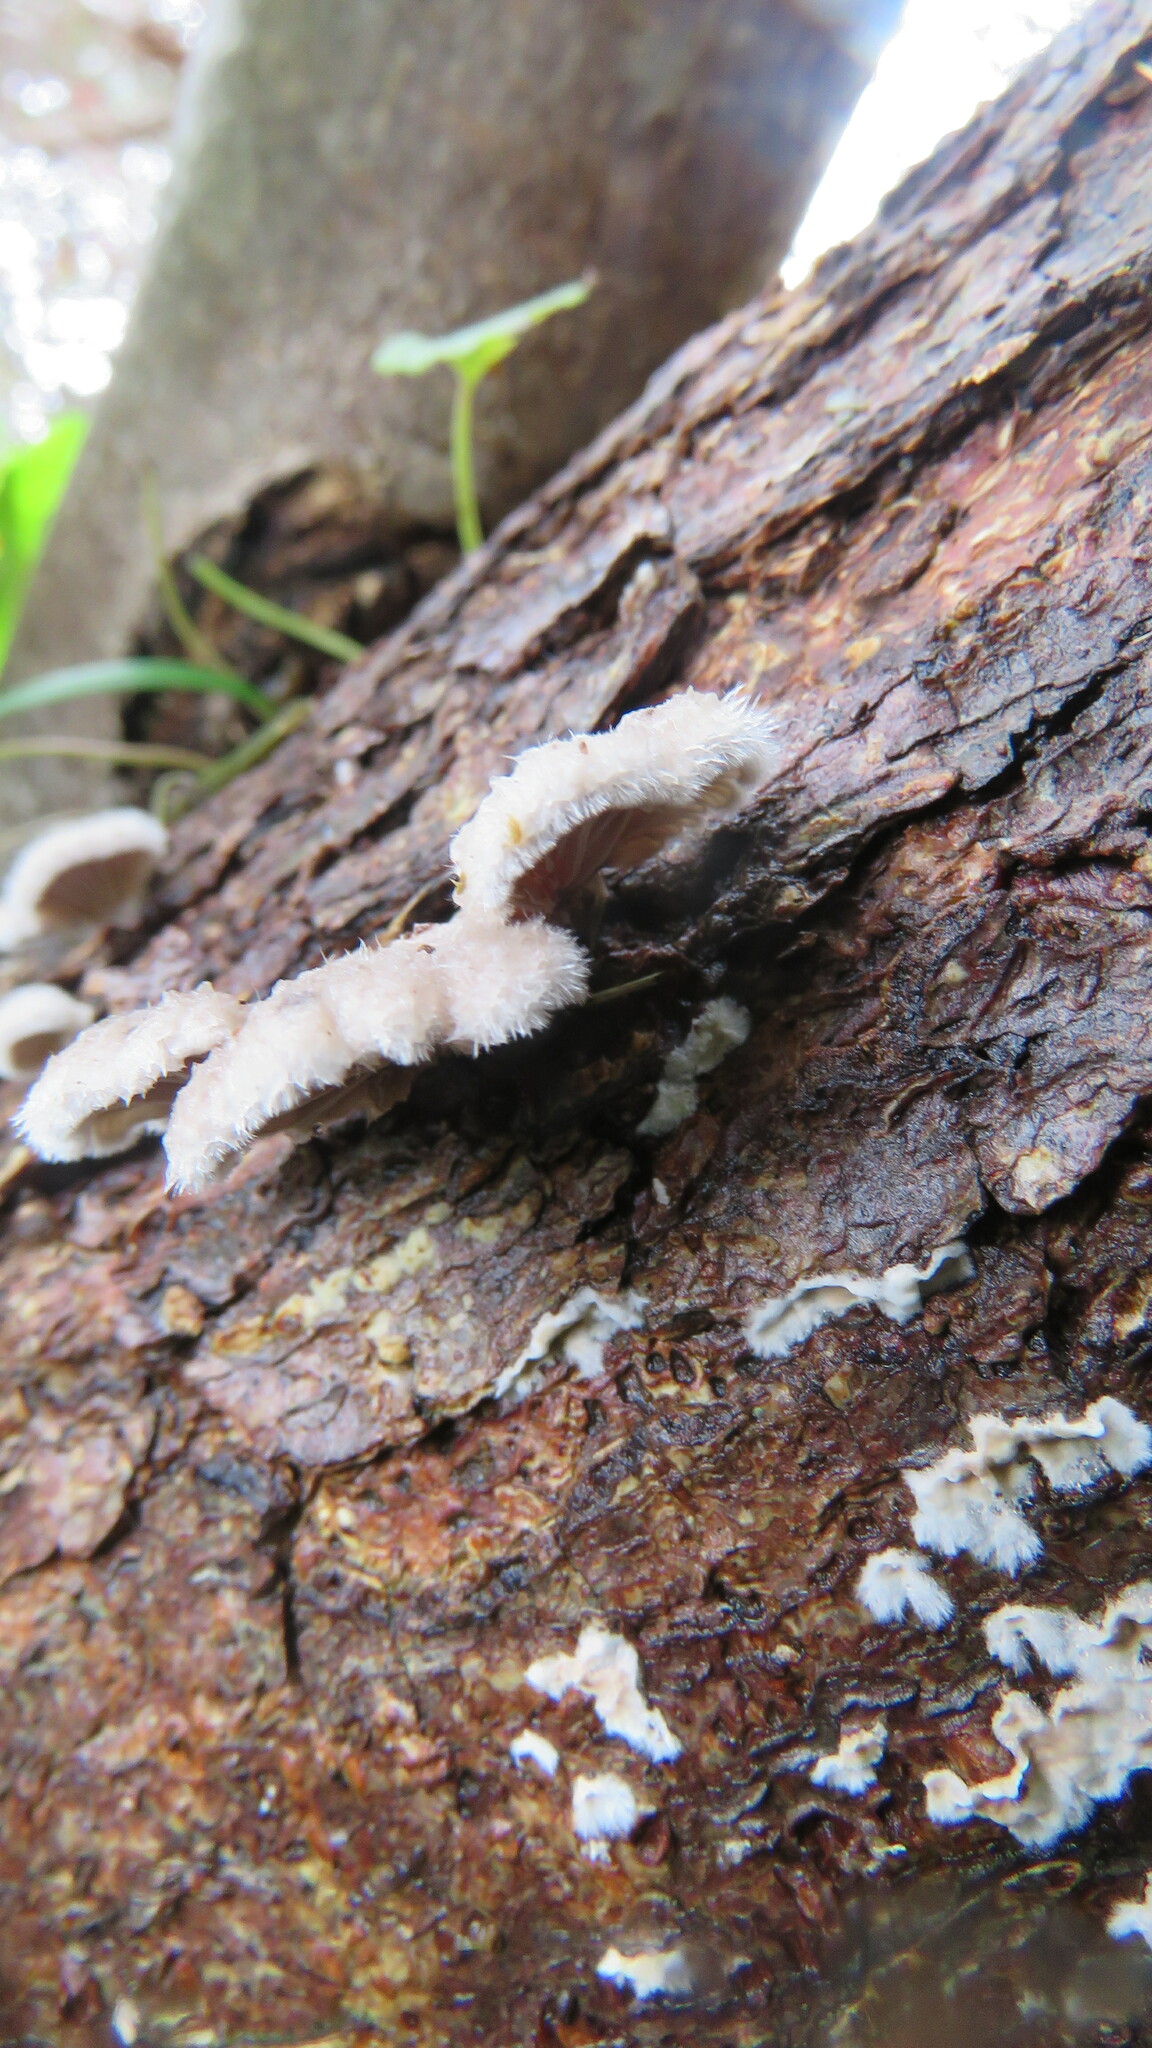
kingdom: Fungi
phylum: Basidiomycota
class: Agaricomycetes
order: Agaricales
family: Schizophyllaceae
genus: Schizophyllum
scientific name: Schizophyllum commune
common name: Common porecrust
